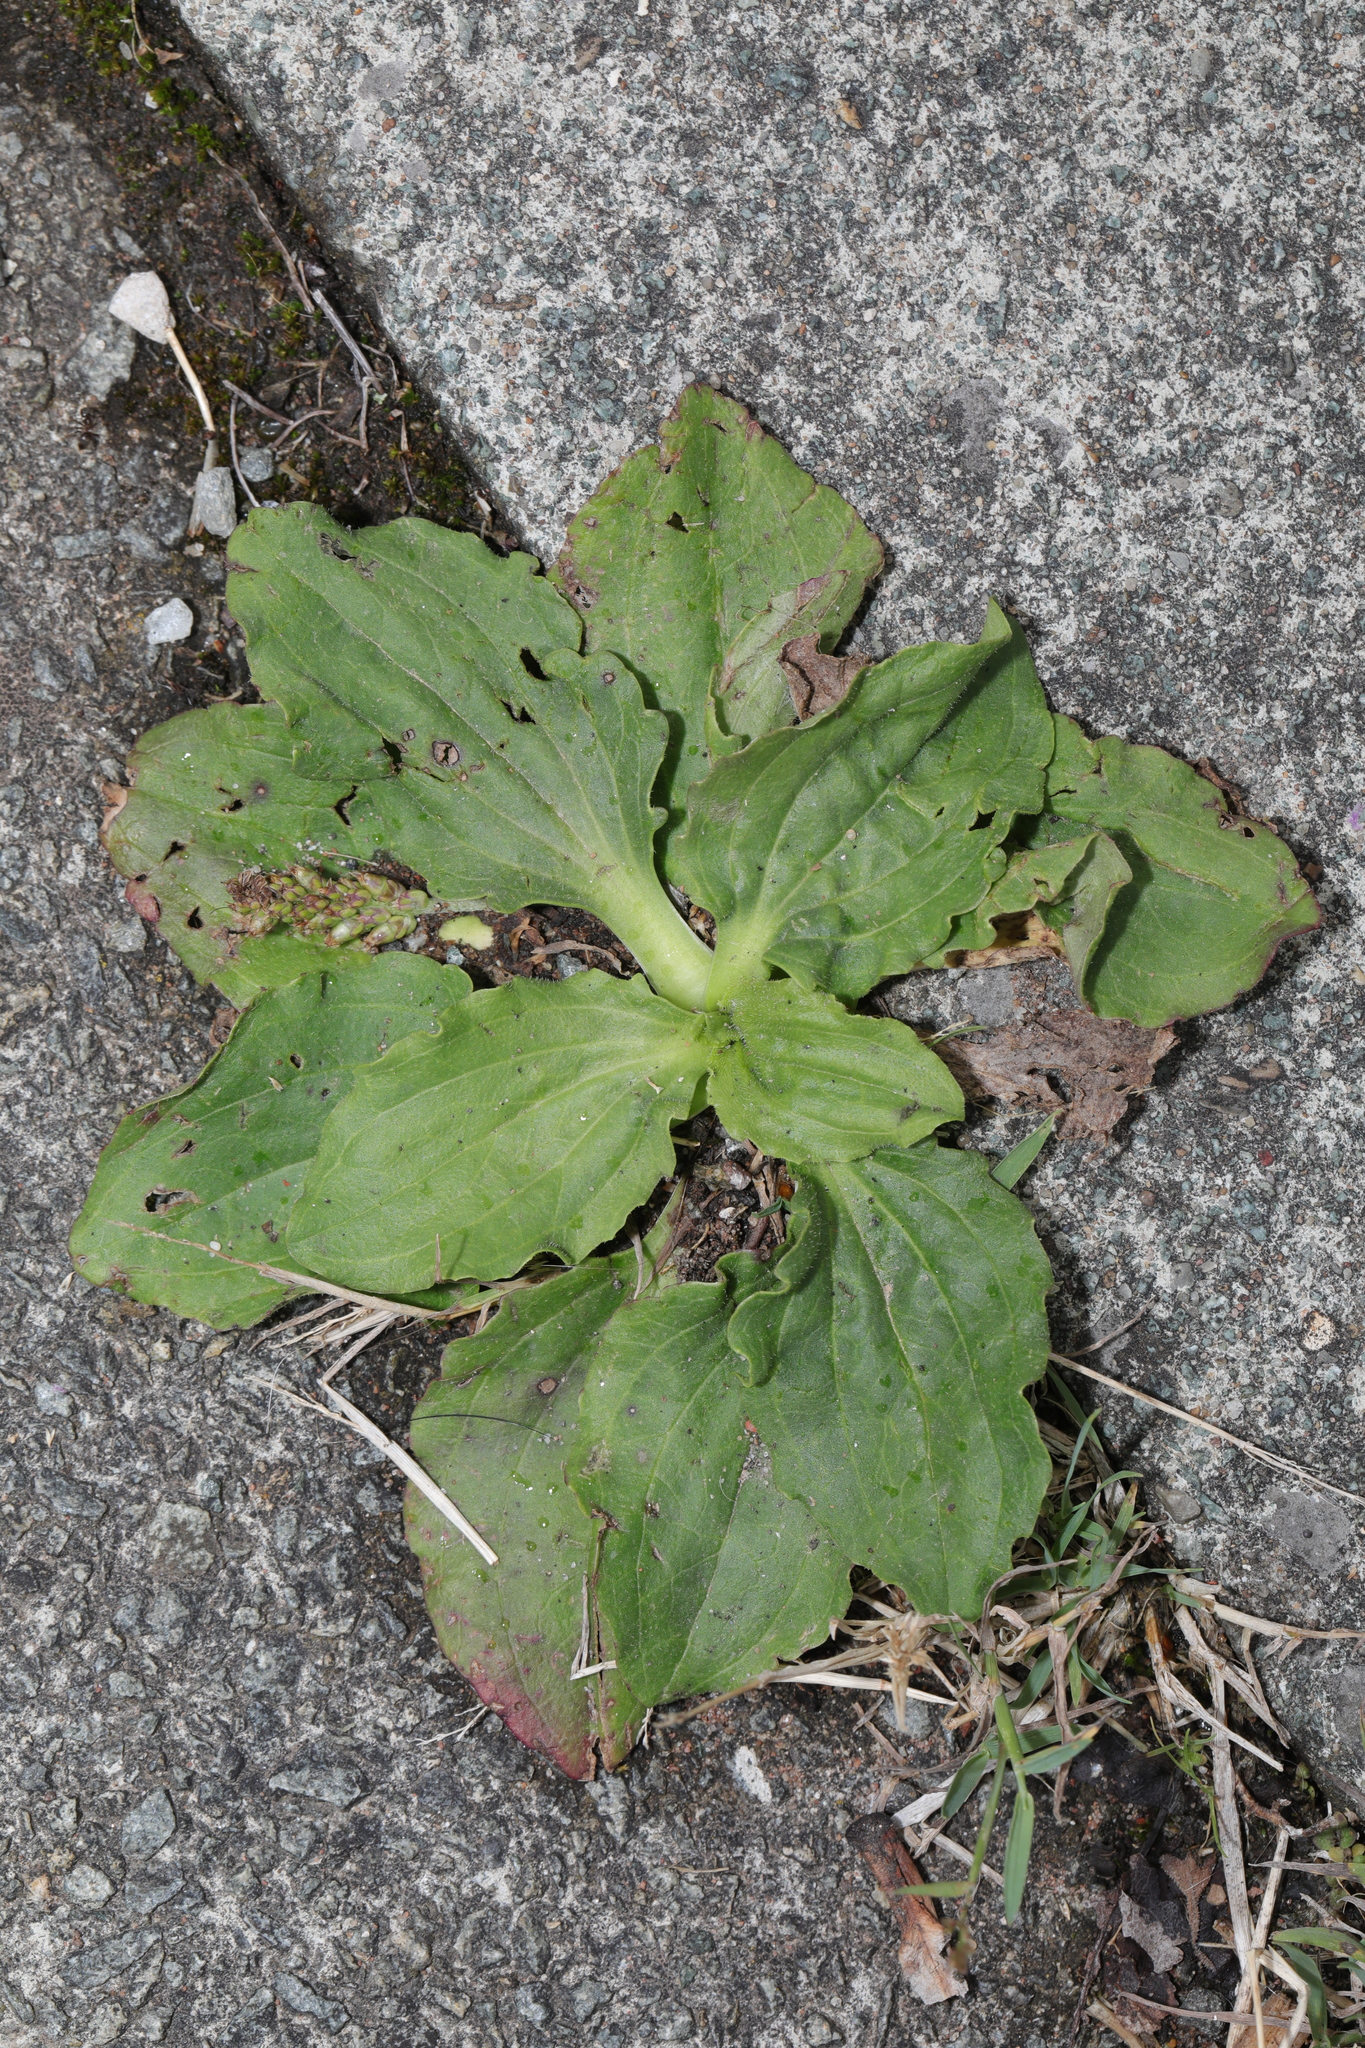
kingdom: Plantae
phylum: Tracheophyta
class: Magnoliopsida
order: Lamiales
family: Plantaginaceae
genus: Plantago
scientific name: Plantago major
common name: Common plantain
